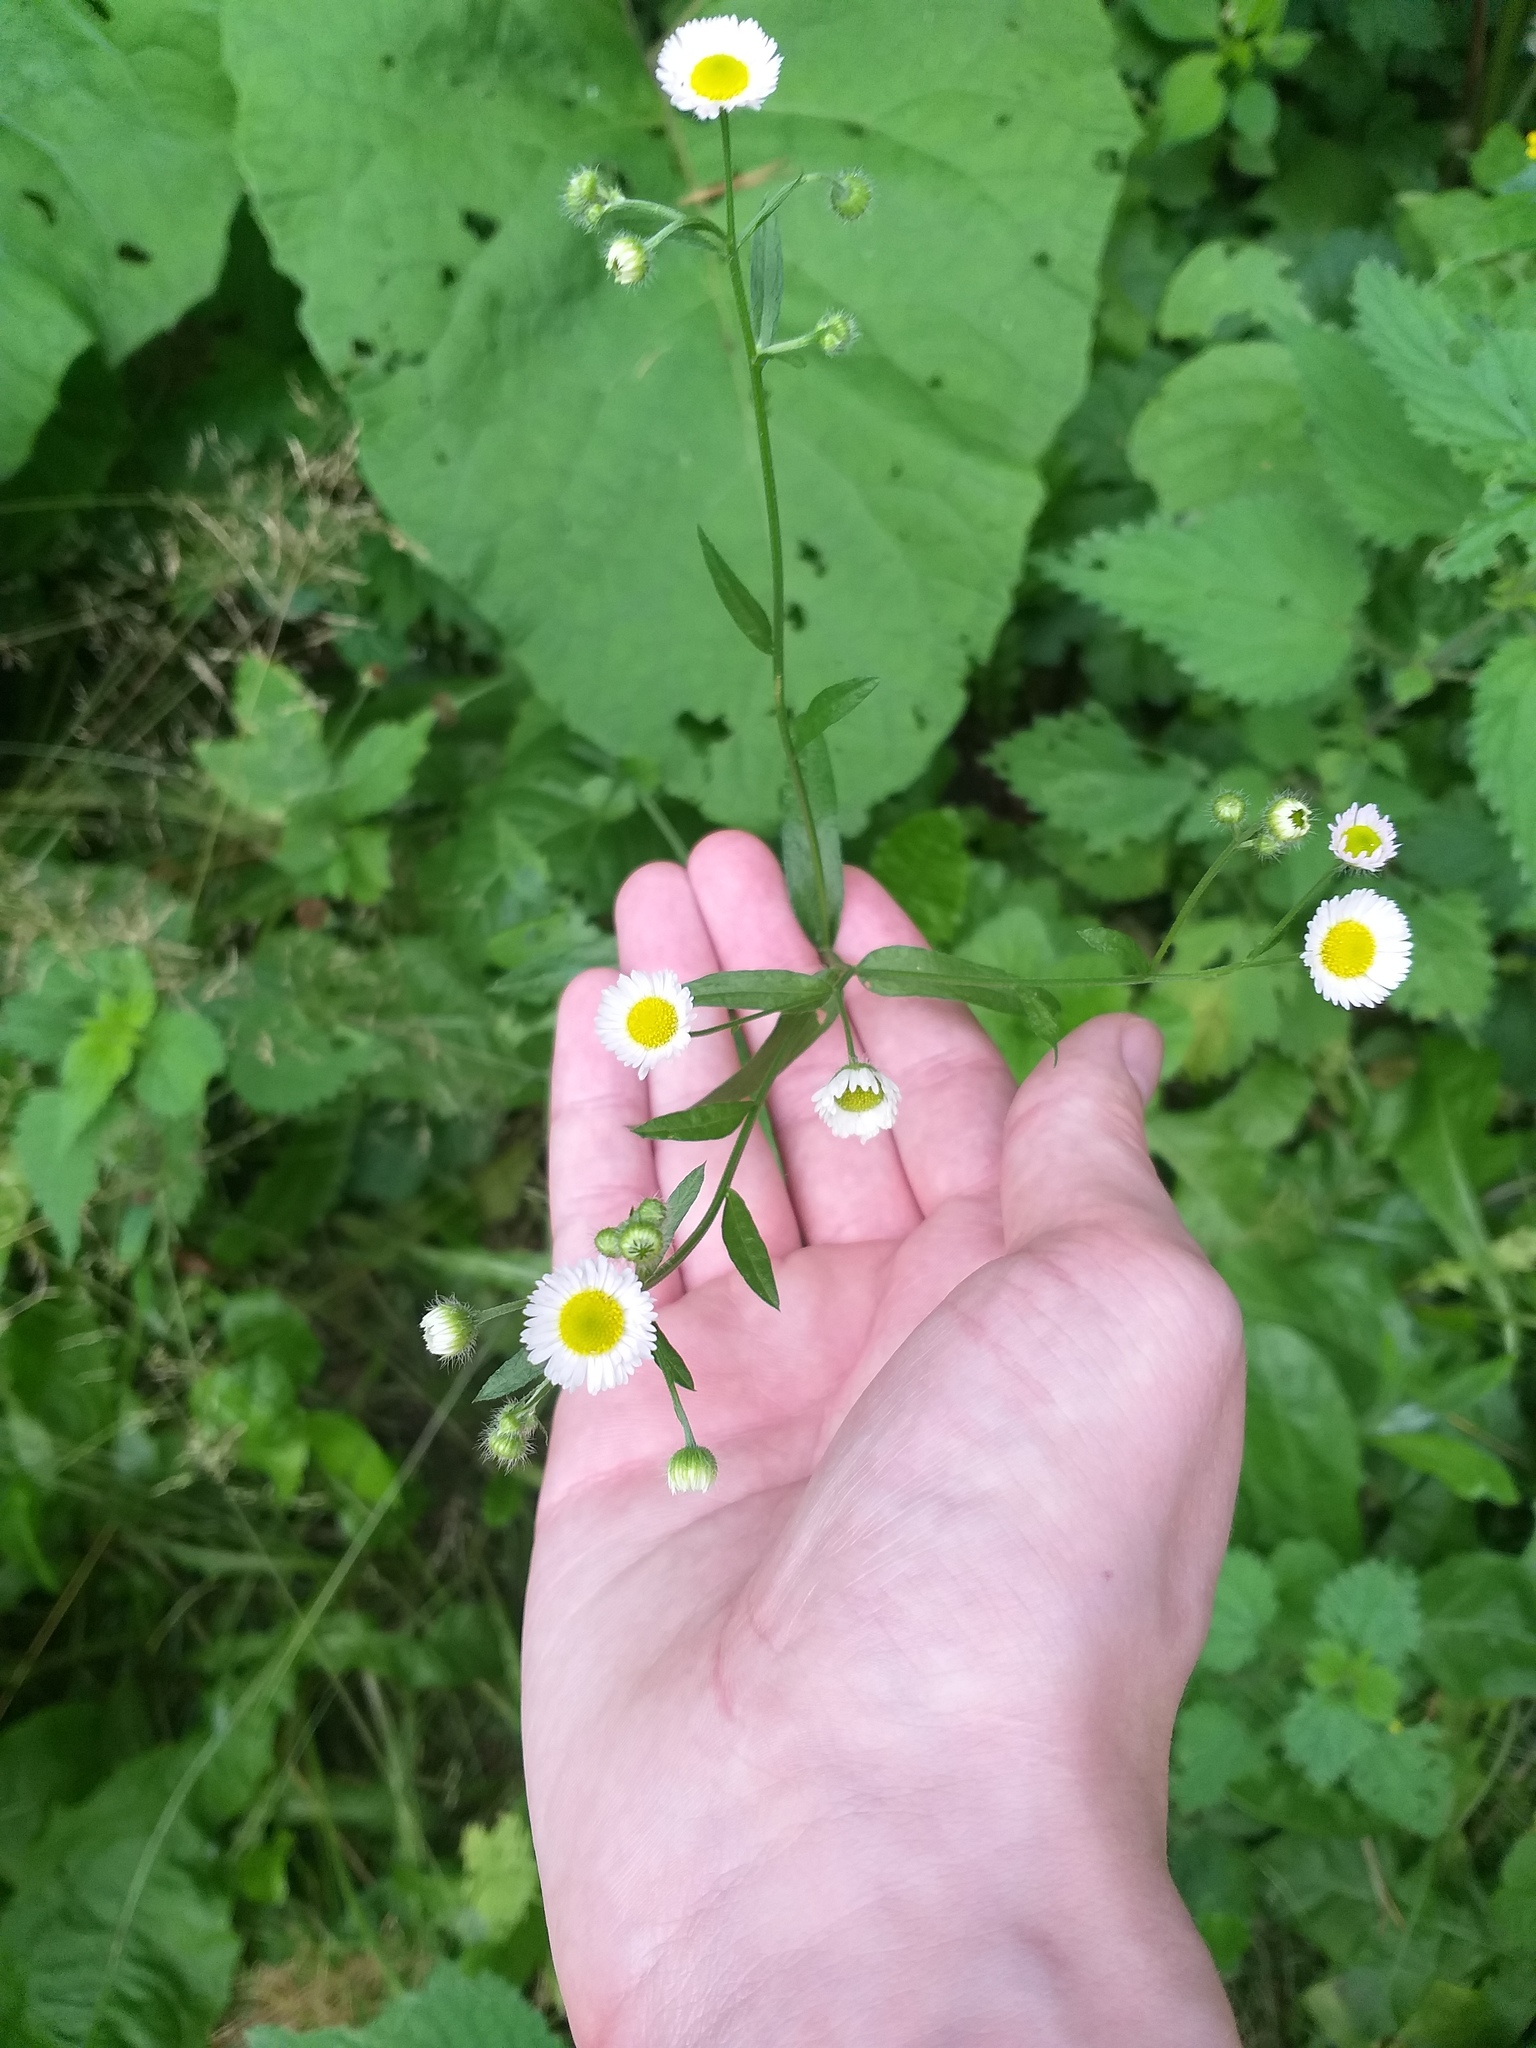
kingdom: Plantae
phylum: Tracheophyta
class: Magnoliopsida
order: Asterales
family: Asteraceae
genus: Erigeron
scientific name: Erigeron annuus
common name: Tall fleabane
